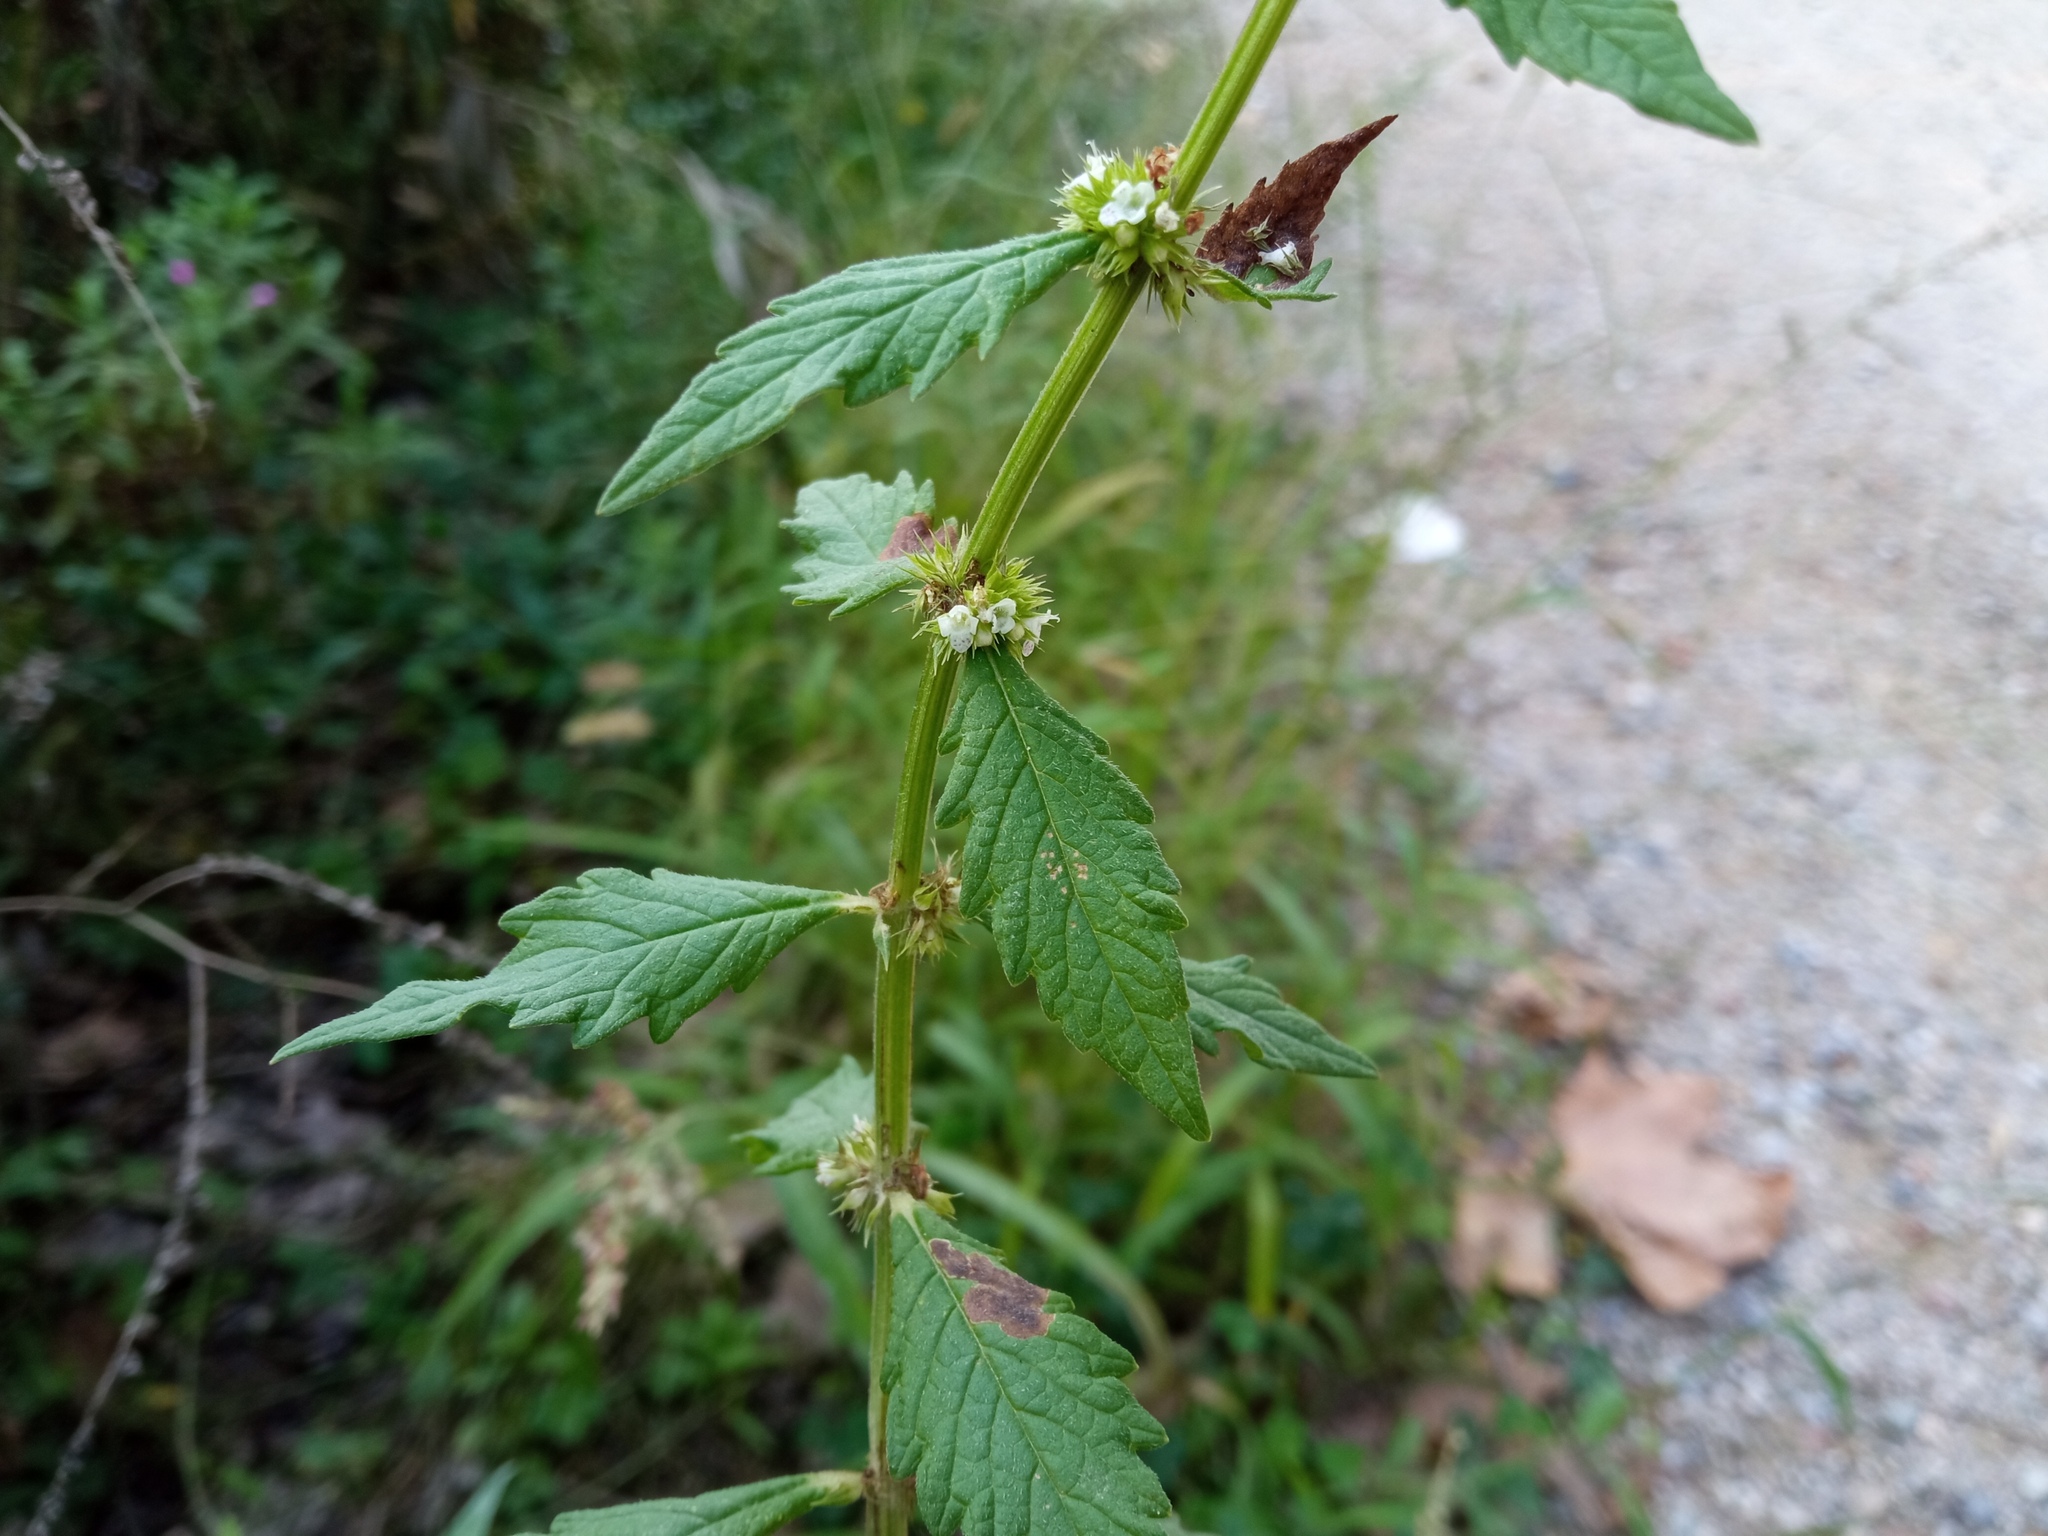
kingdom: Plantae
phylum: Tracheophyta
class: Magnoliopsida
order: Lamiales
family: Lamiaceae
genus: Lycopus
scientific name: Lycopus europaeus
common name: European bugleweed
